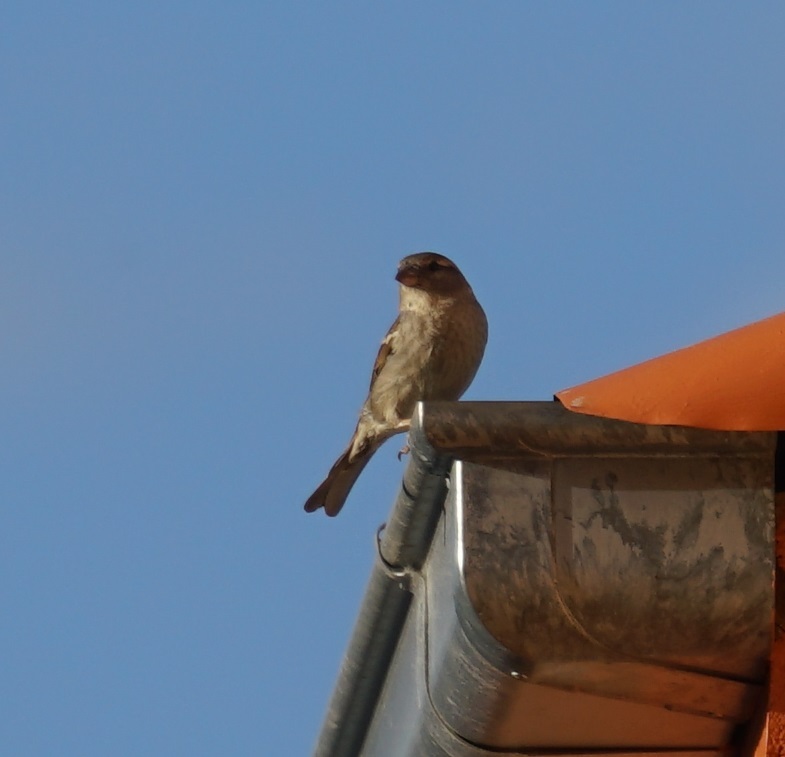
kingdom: Animalia
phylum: Chordata
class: Aves
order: Passeriformes
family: Passeridae
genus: Passer
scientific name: Passer domesticus
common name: House sparrow
